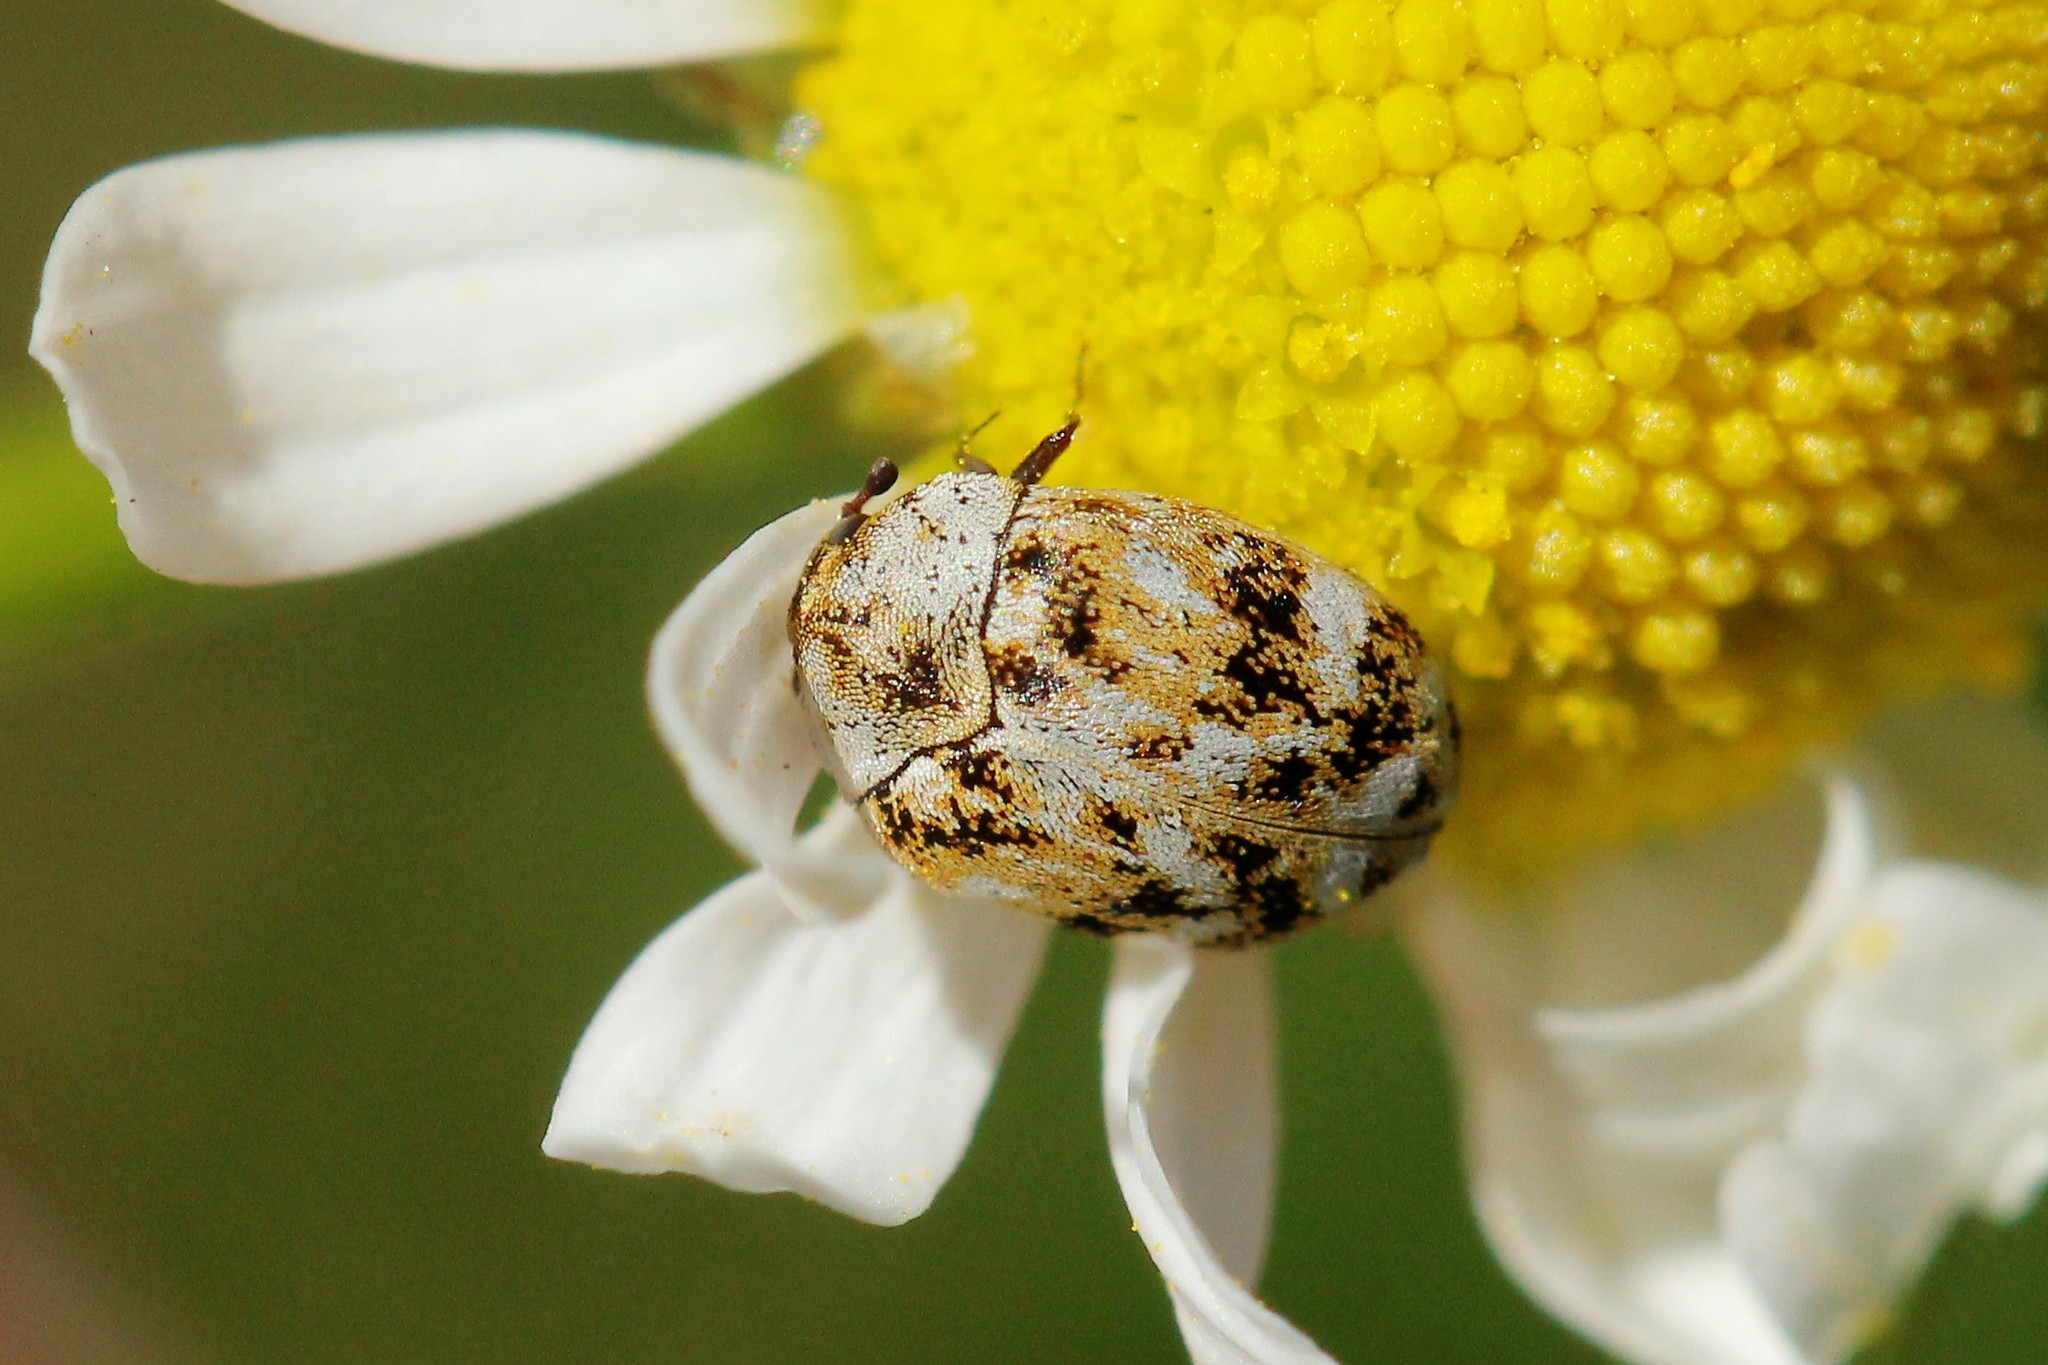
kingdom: Animalia
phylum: Arthropoda
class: Insecta
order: Coleoptera
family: Dermestidae
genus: Anthrenus
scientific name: Anthrenus picturatus
